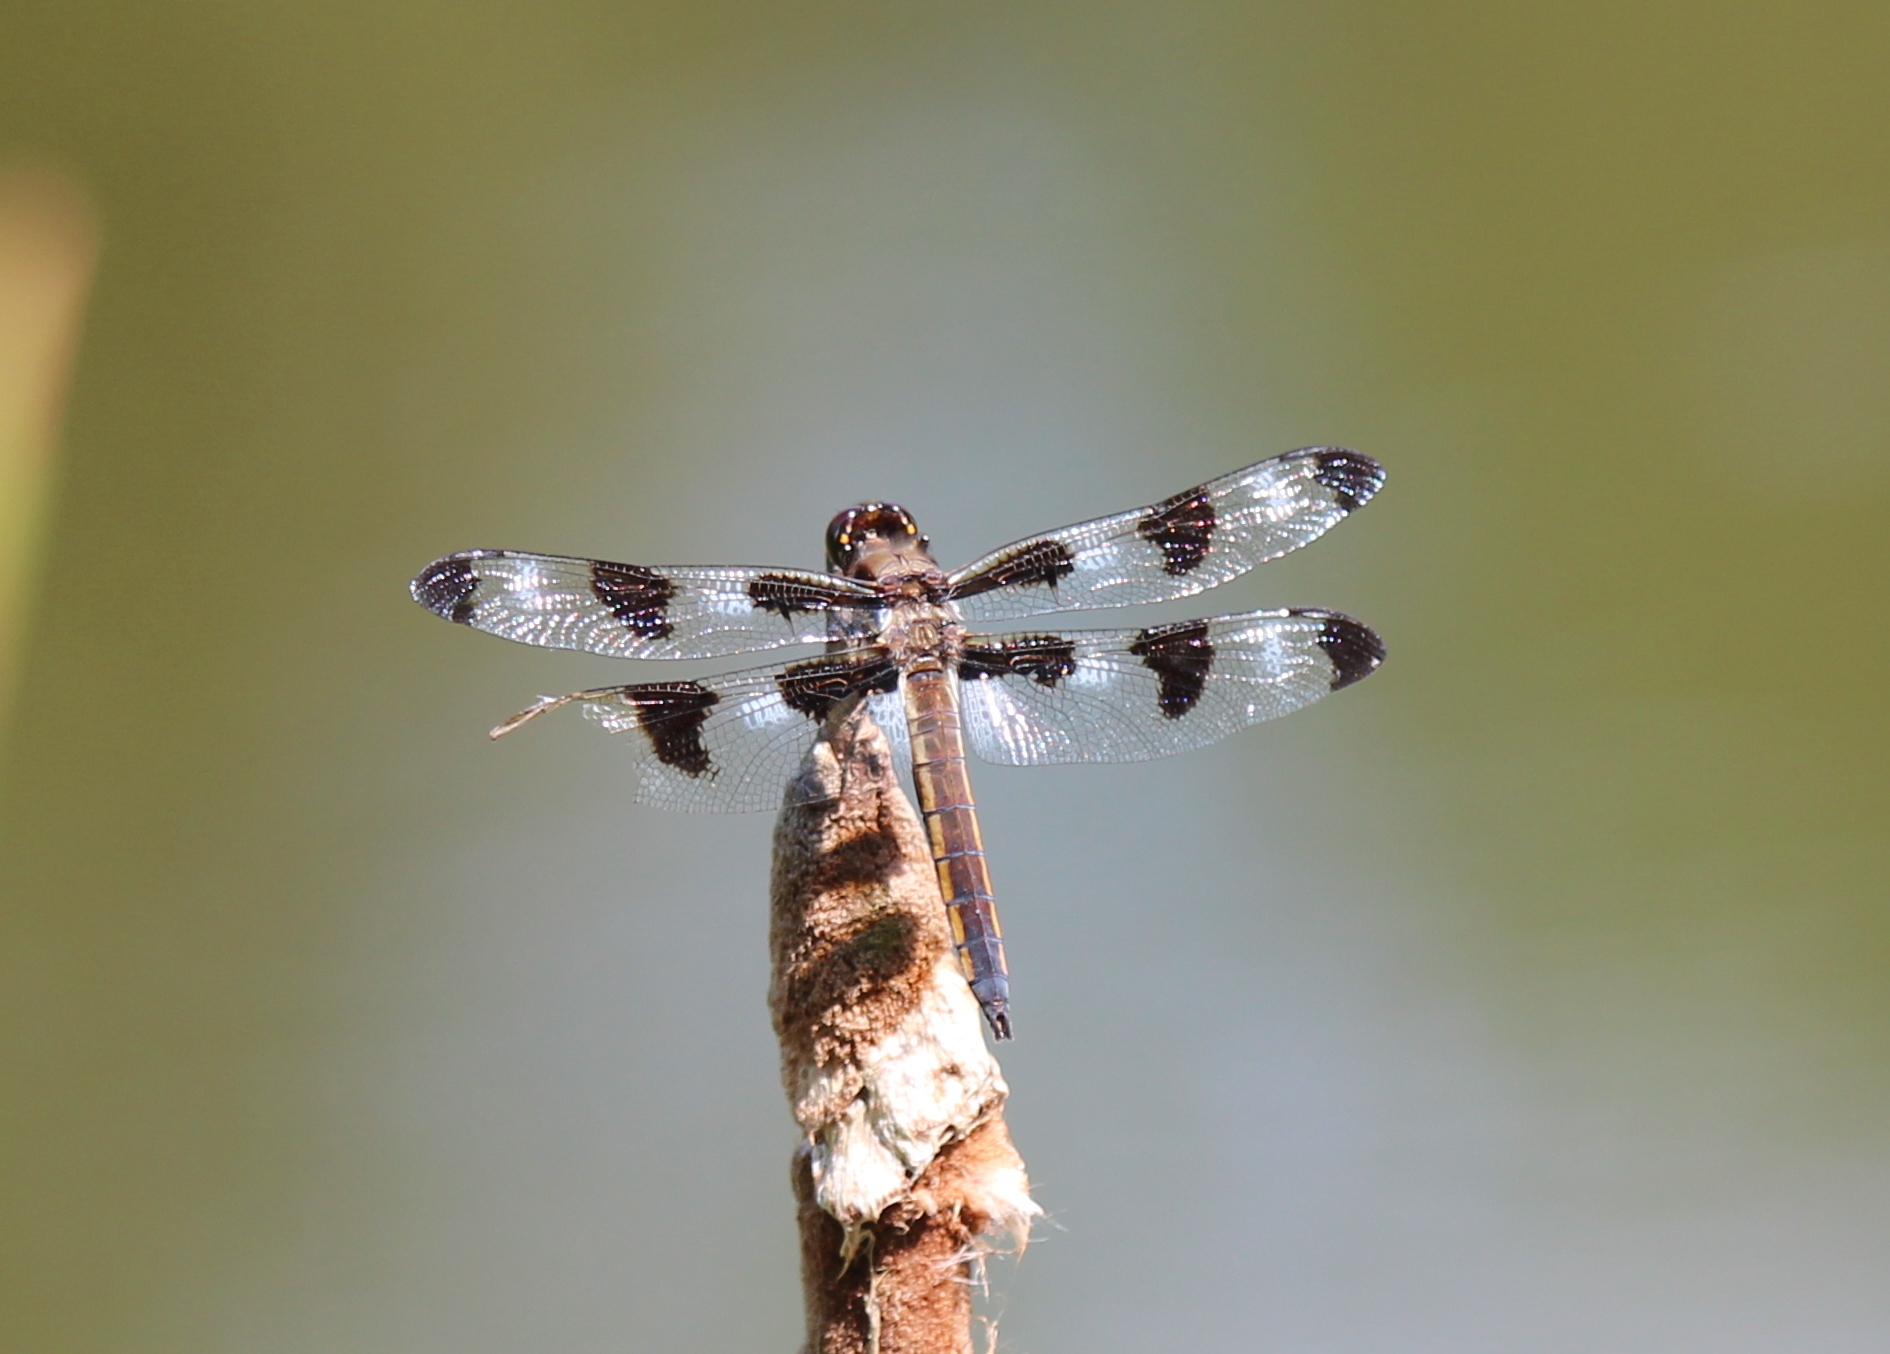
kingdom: Animalia
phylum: Arthropoda
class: Insecta
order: Odonata
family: Libellulidae
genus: Libellula
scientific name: Libellula pulchella
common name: Twelve-spotted skimmer
